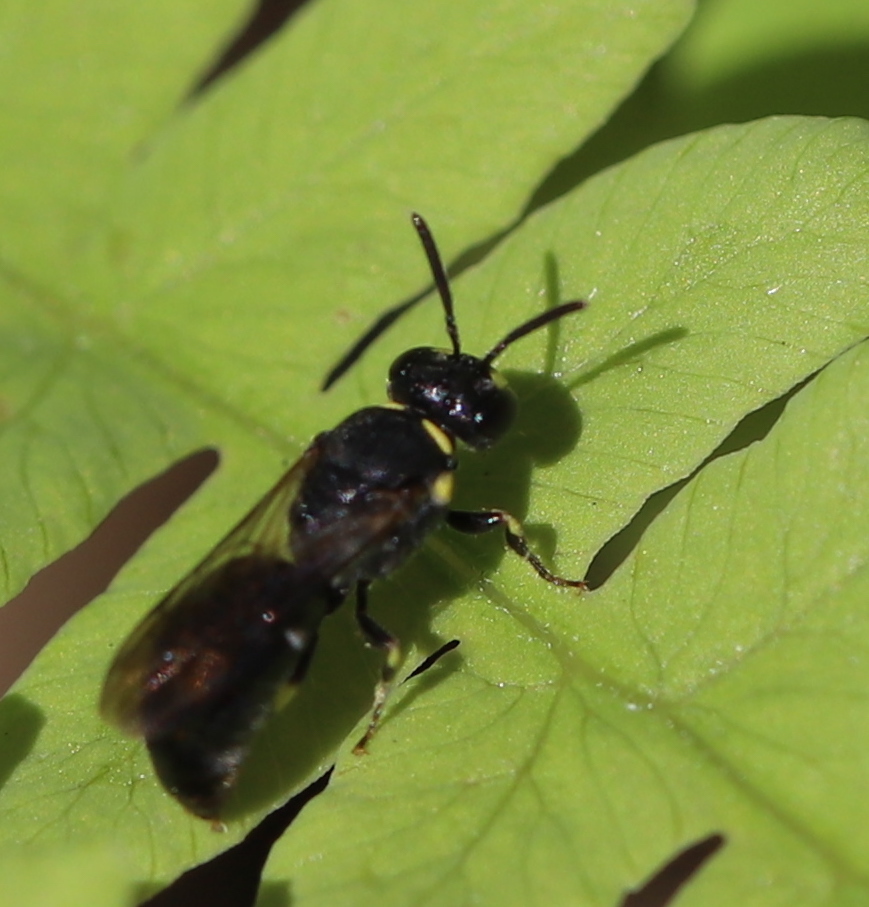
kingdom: Animalia
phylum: Arthropoda
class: Insecta
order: Hymenoptera
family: Colletidae
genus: Hylaeus
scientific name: Hylaeus modestus
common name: Yellow-faced bee
